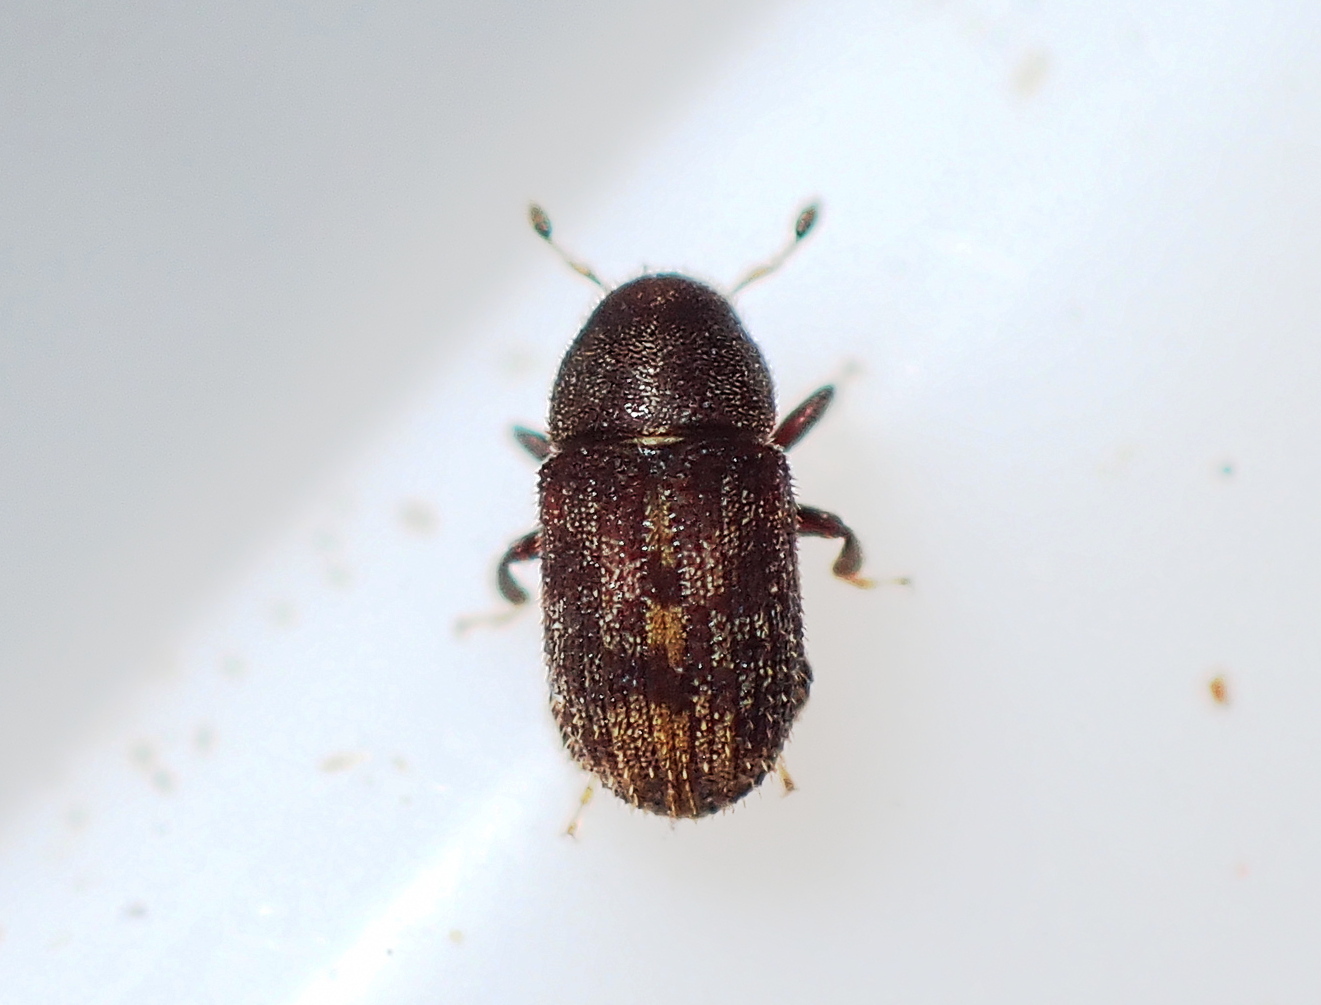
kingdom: Animalia
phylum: Arthropoda
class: Insecta
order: Coleoptera
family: Curculionidae
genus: Chaetoptelius
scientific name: Chaetoptelius mundulus
